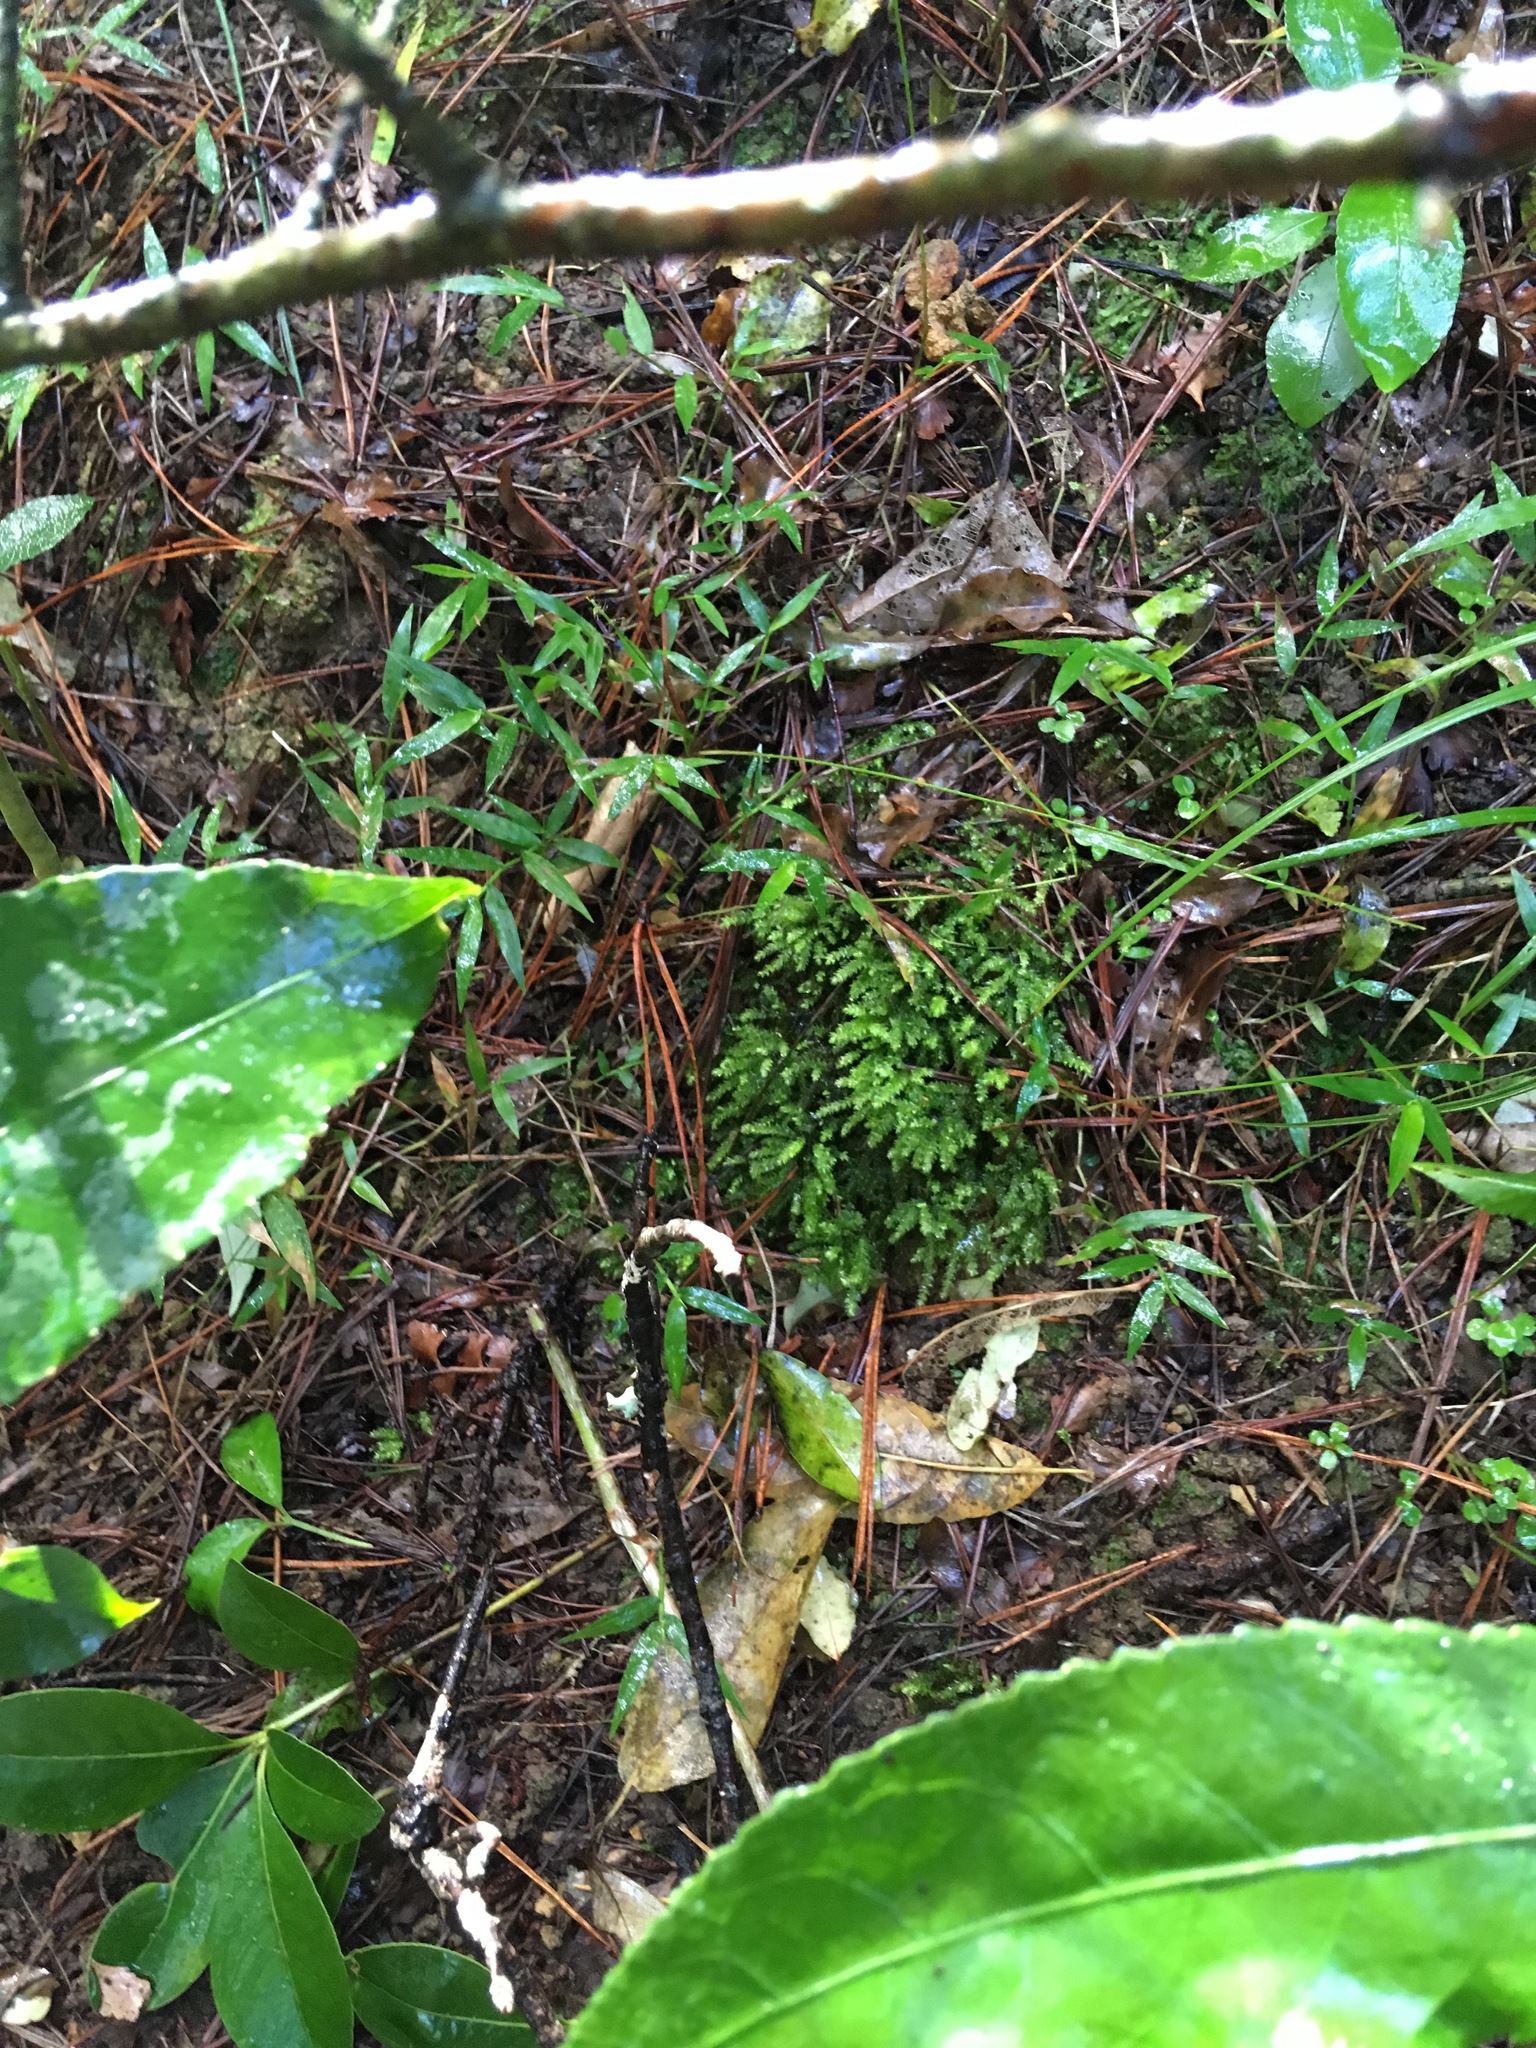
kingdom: Plantae
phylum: Tracheophyta
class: Liliopsida
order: Poales
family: Poaceae
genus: Oplismenus
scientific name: Oplismenus hirtellus
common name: Basketgrass
